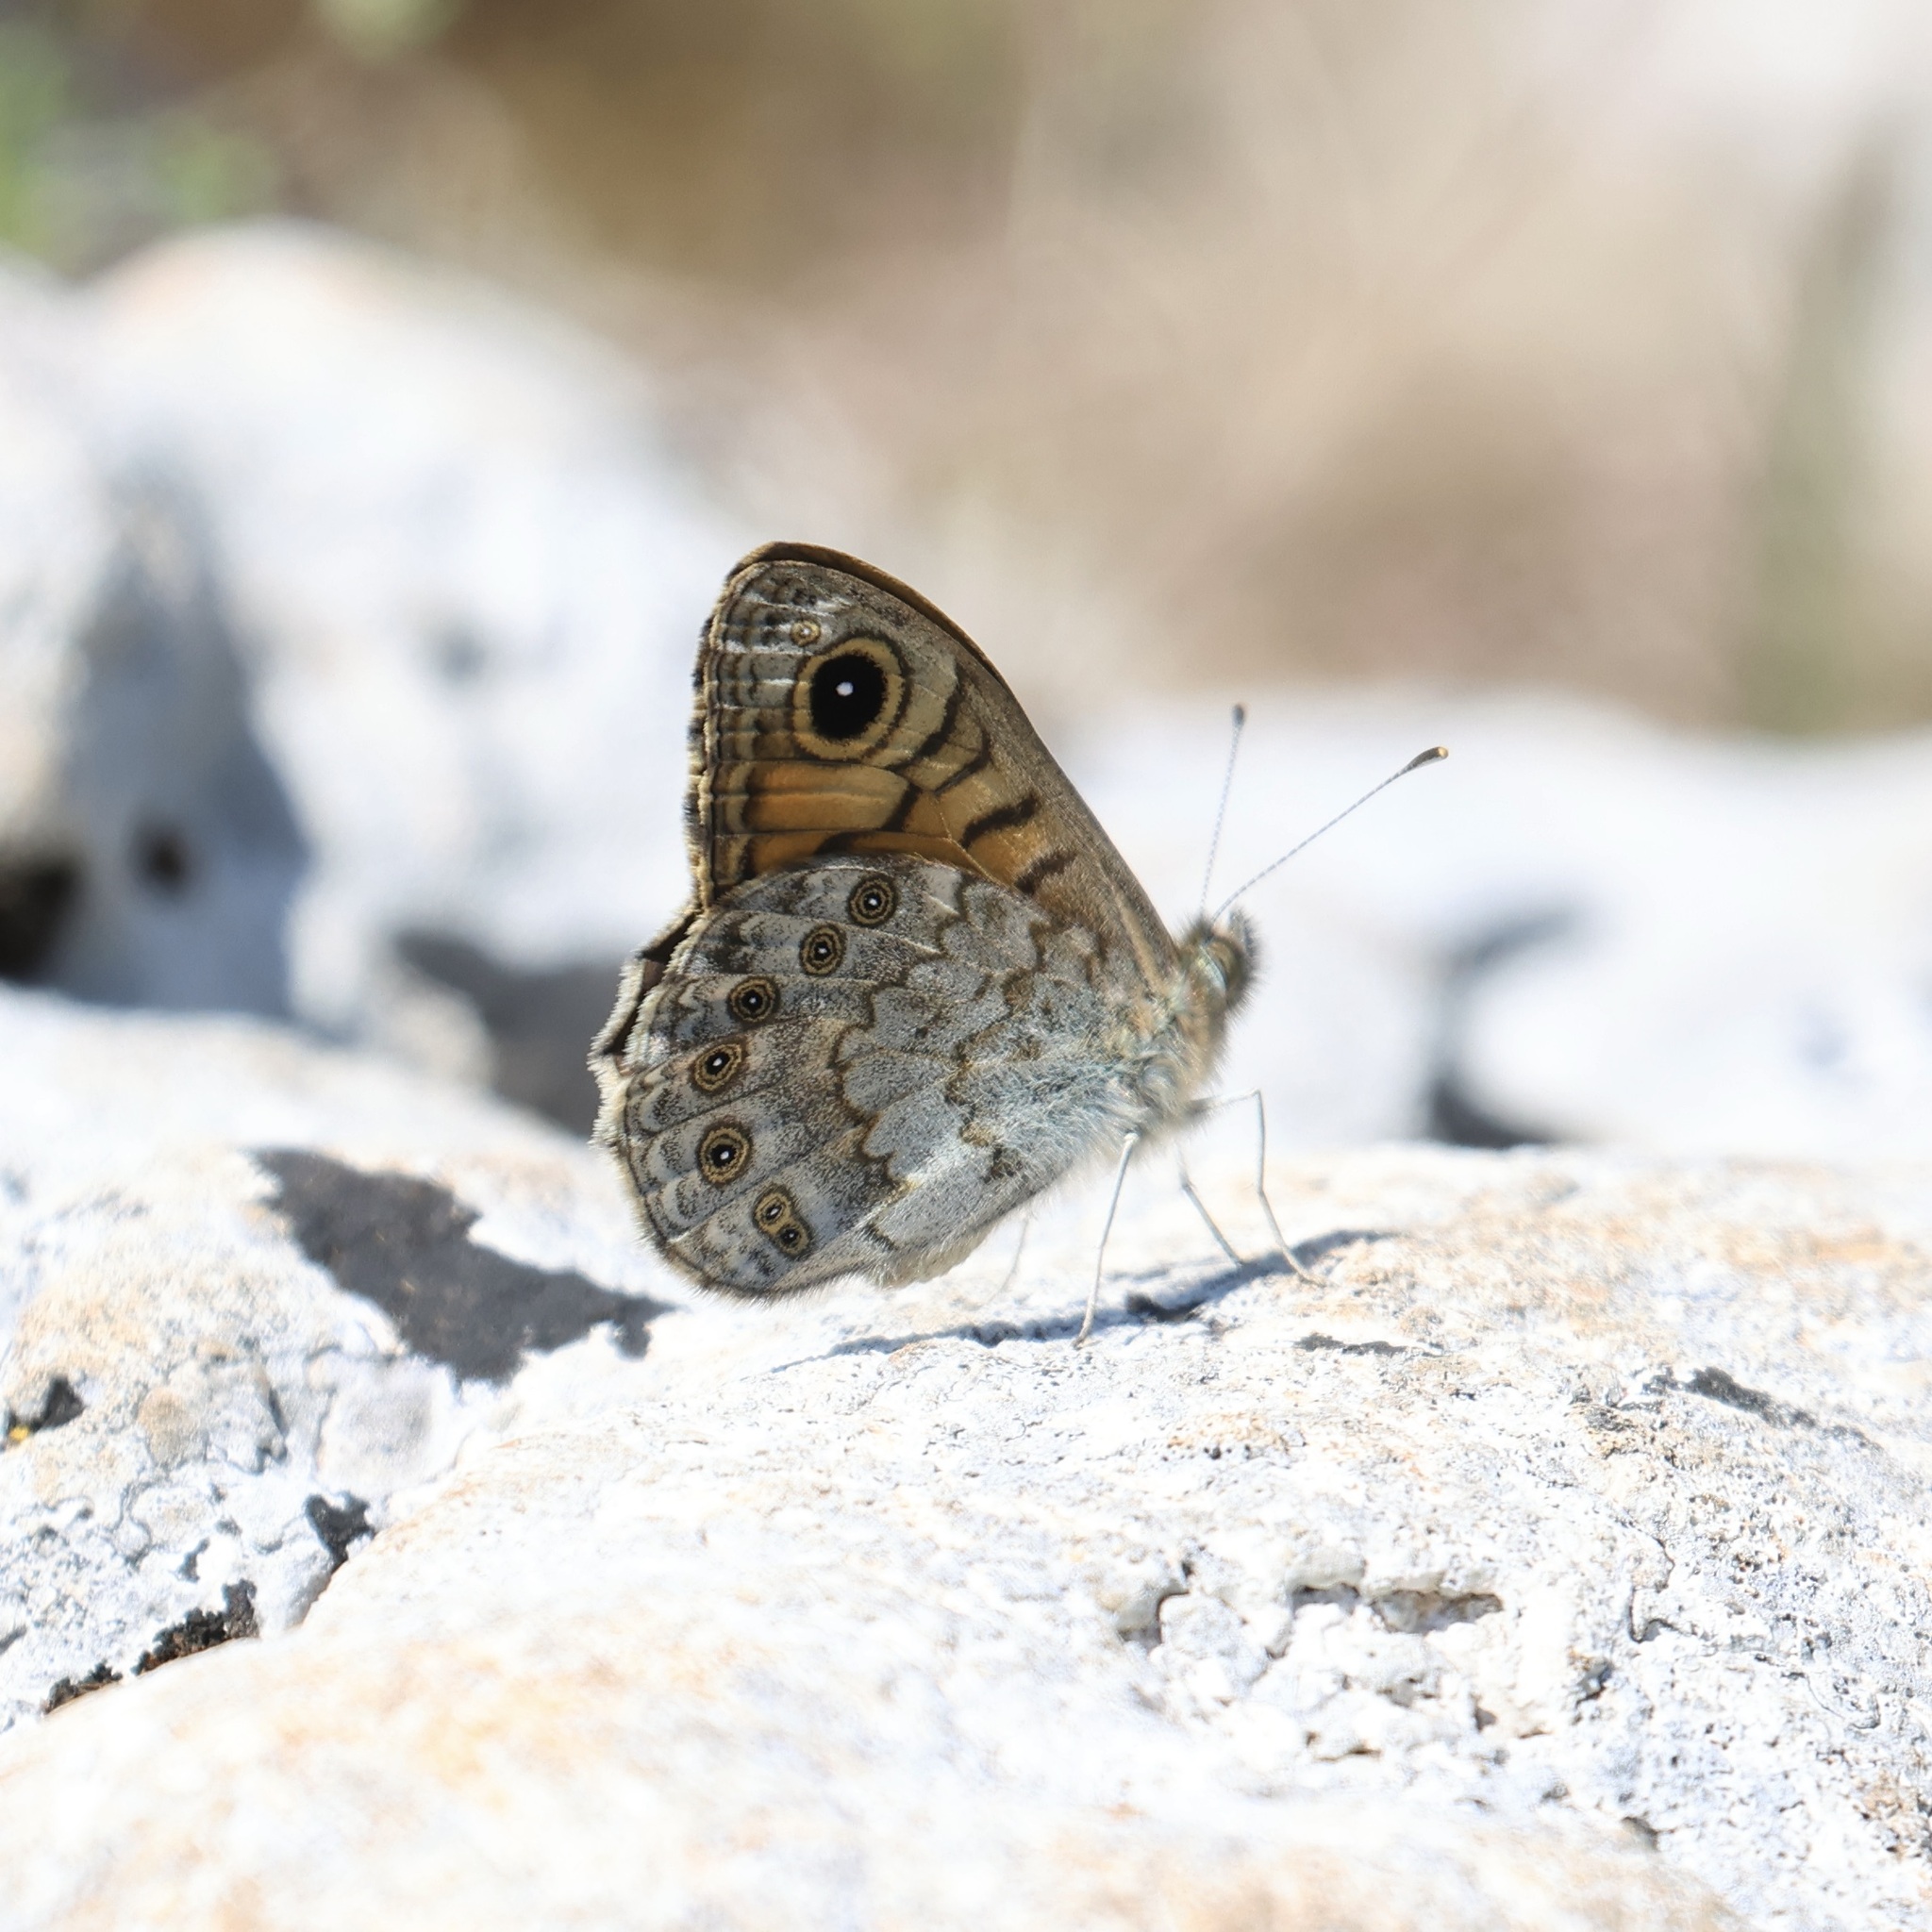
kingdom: Animalia
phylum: Arthropoda
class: Insecta
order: Lepidoptera
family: Nymphalidae
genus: Pararge
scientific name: Pararge Lasiommata maera
